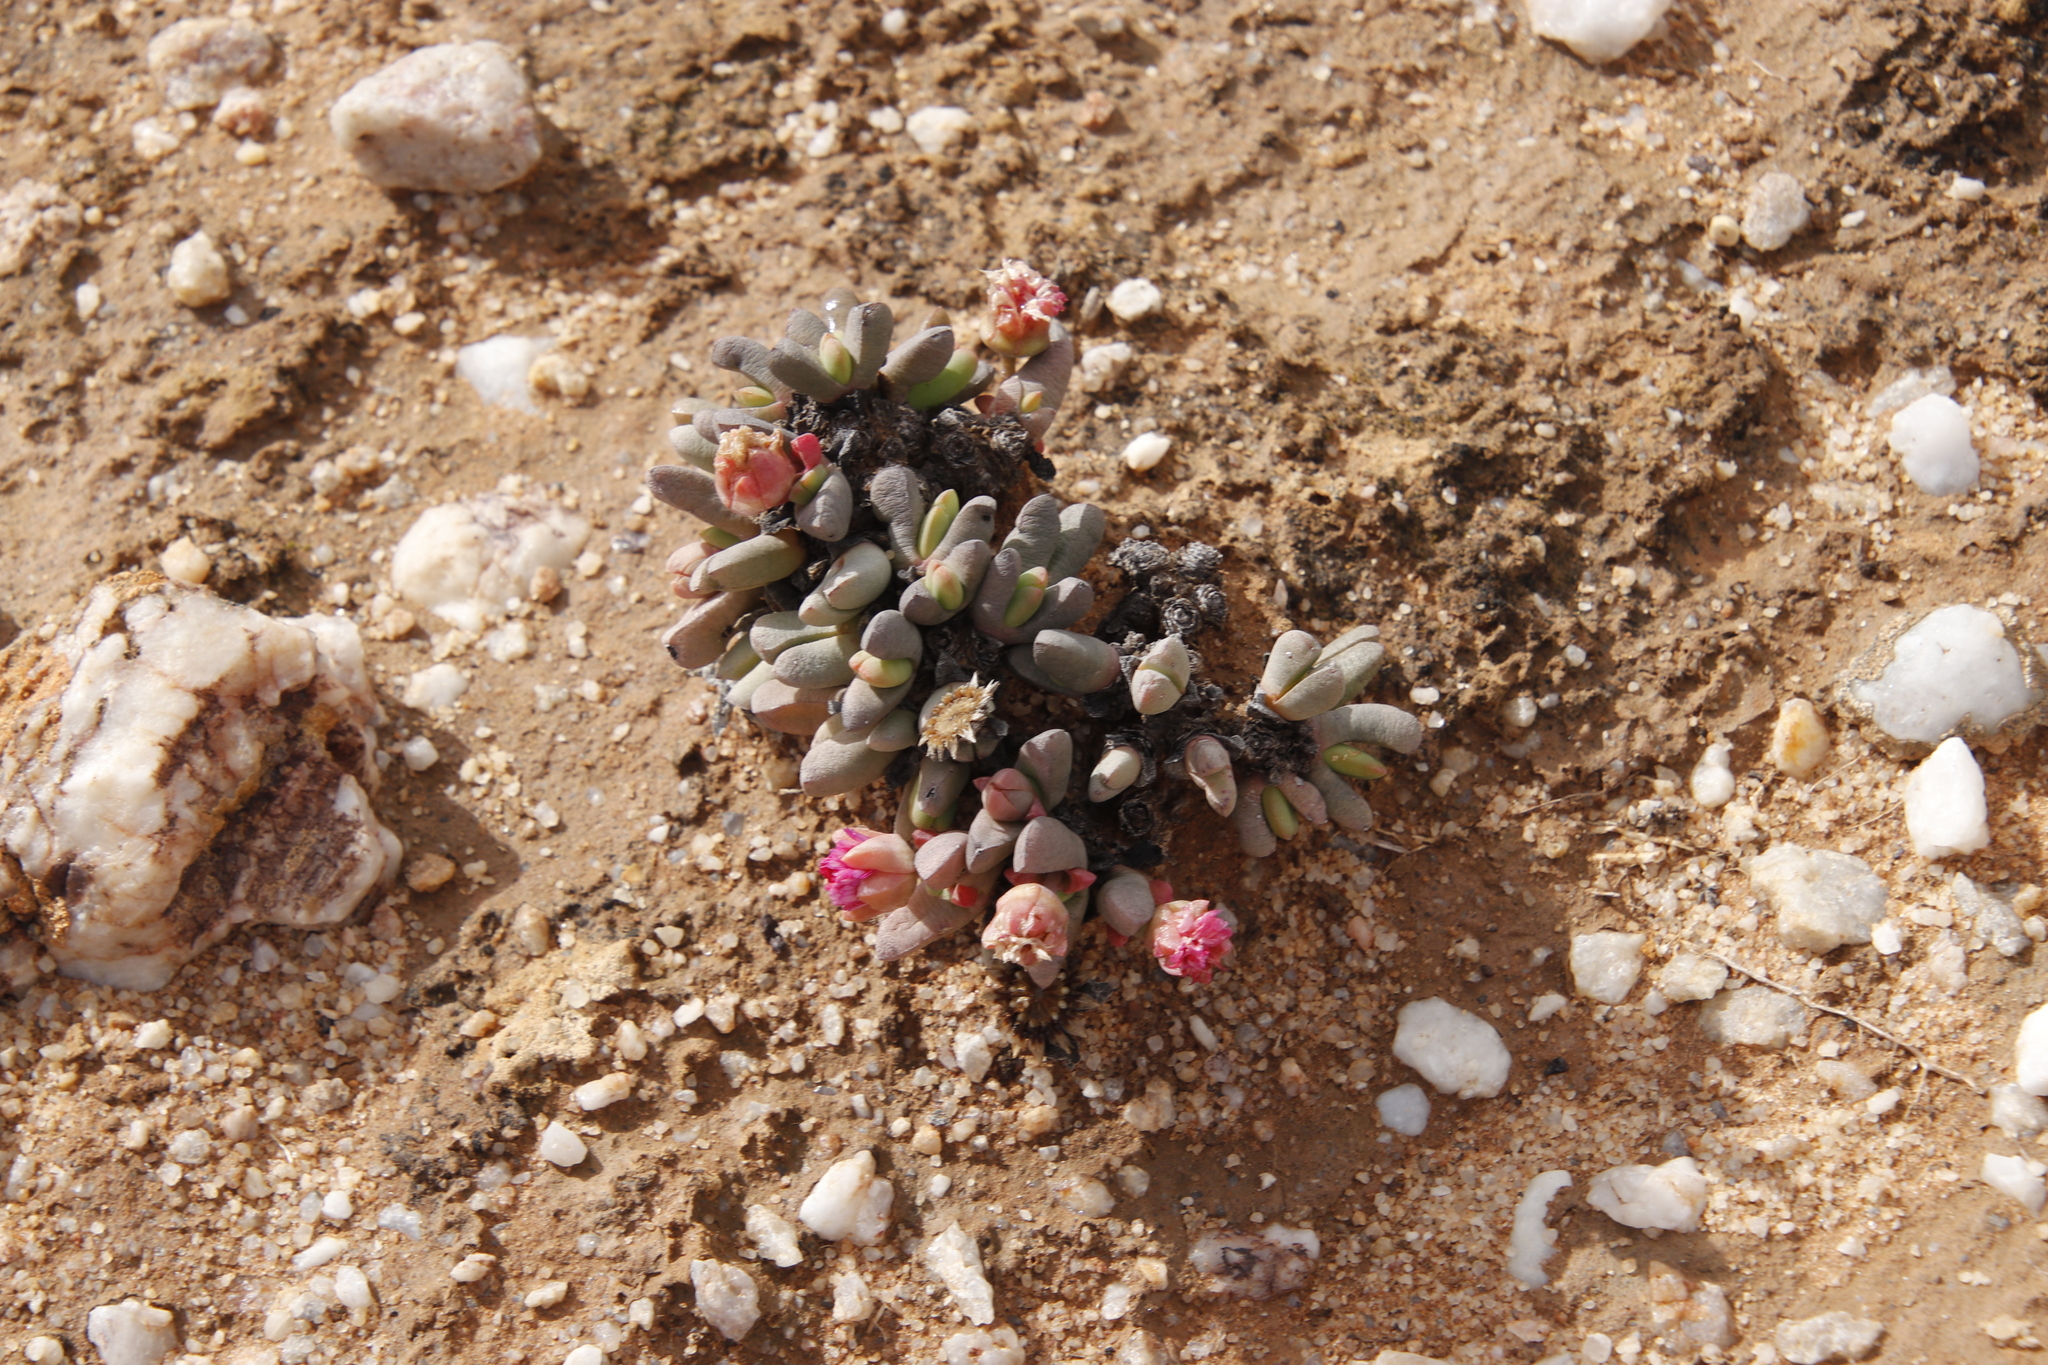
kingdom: Plantae
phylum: Tracheophyta
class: Magnoliopsida
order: Caryophyllales
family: Aizoaceae
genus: Cephalophyllum
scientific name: Cephalophyllum spissum
